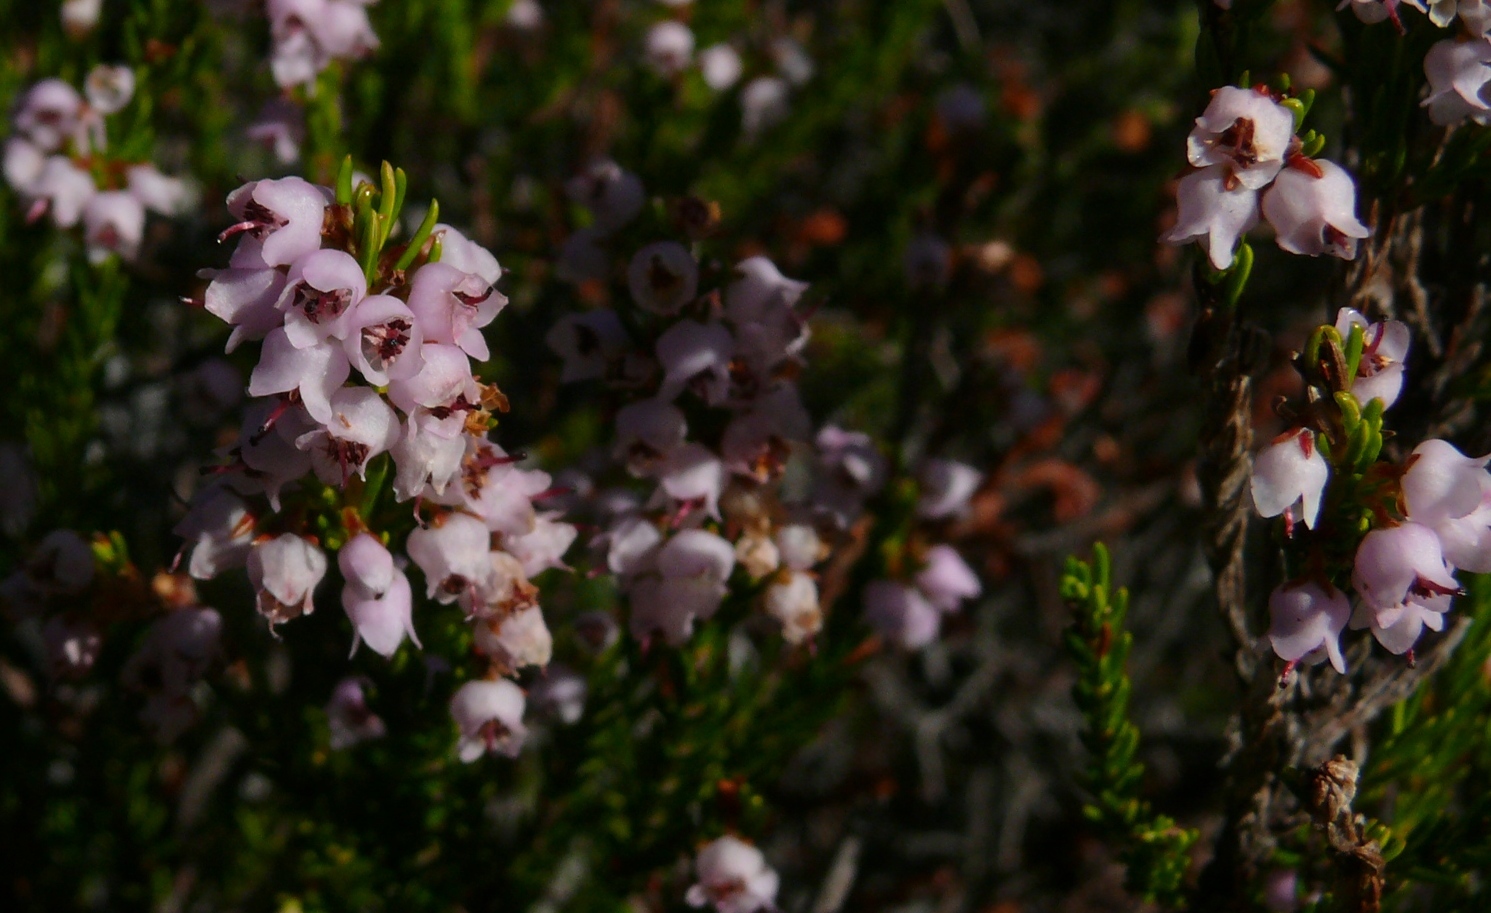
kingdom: Plantae
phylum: Tracheophyta
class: Magnoliopsida
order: Ericales
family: Ericaceae
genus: Erica
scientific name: Erica curvirostris
